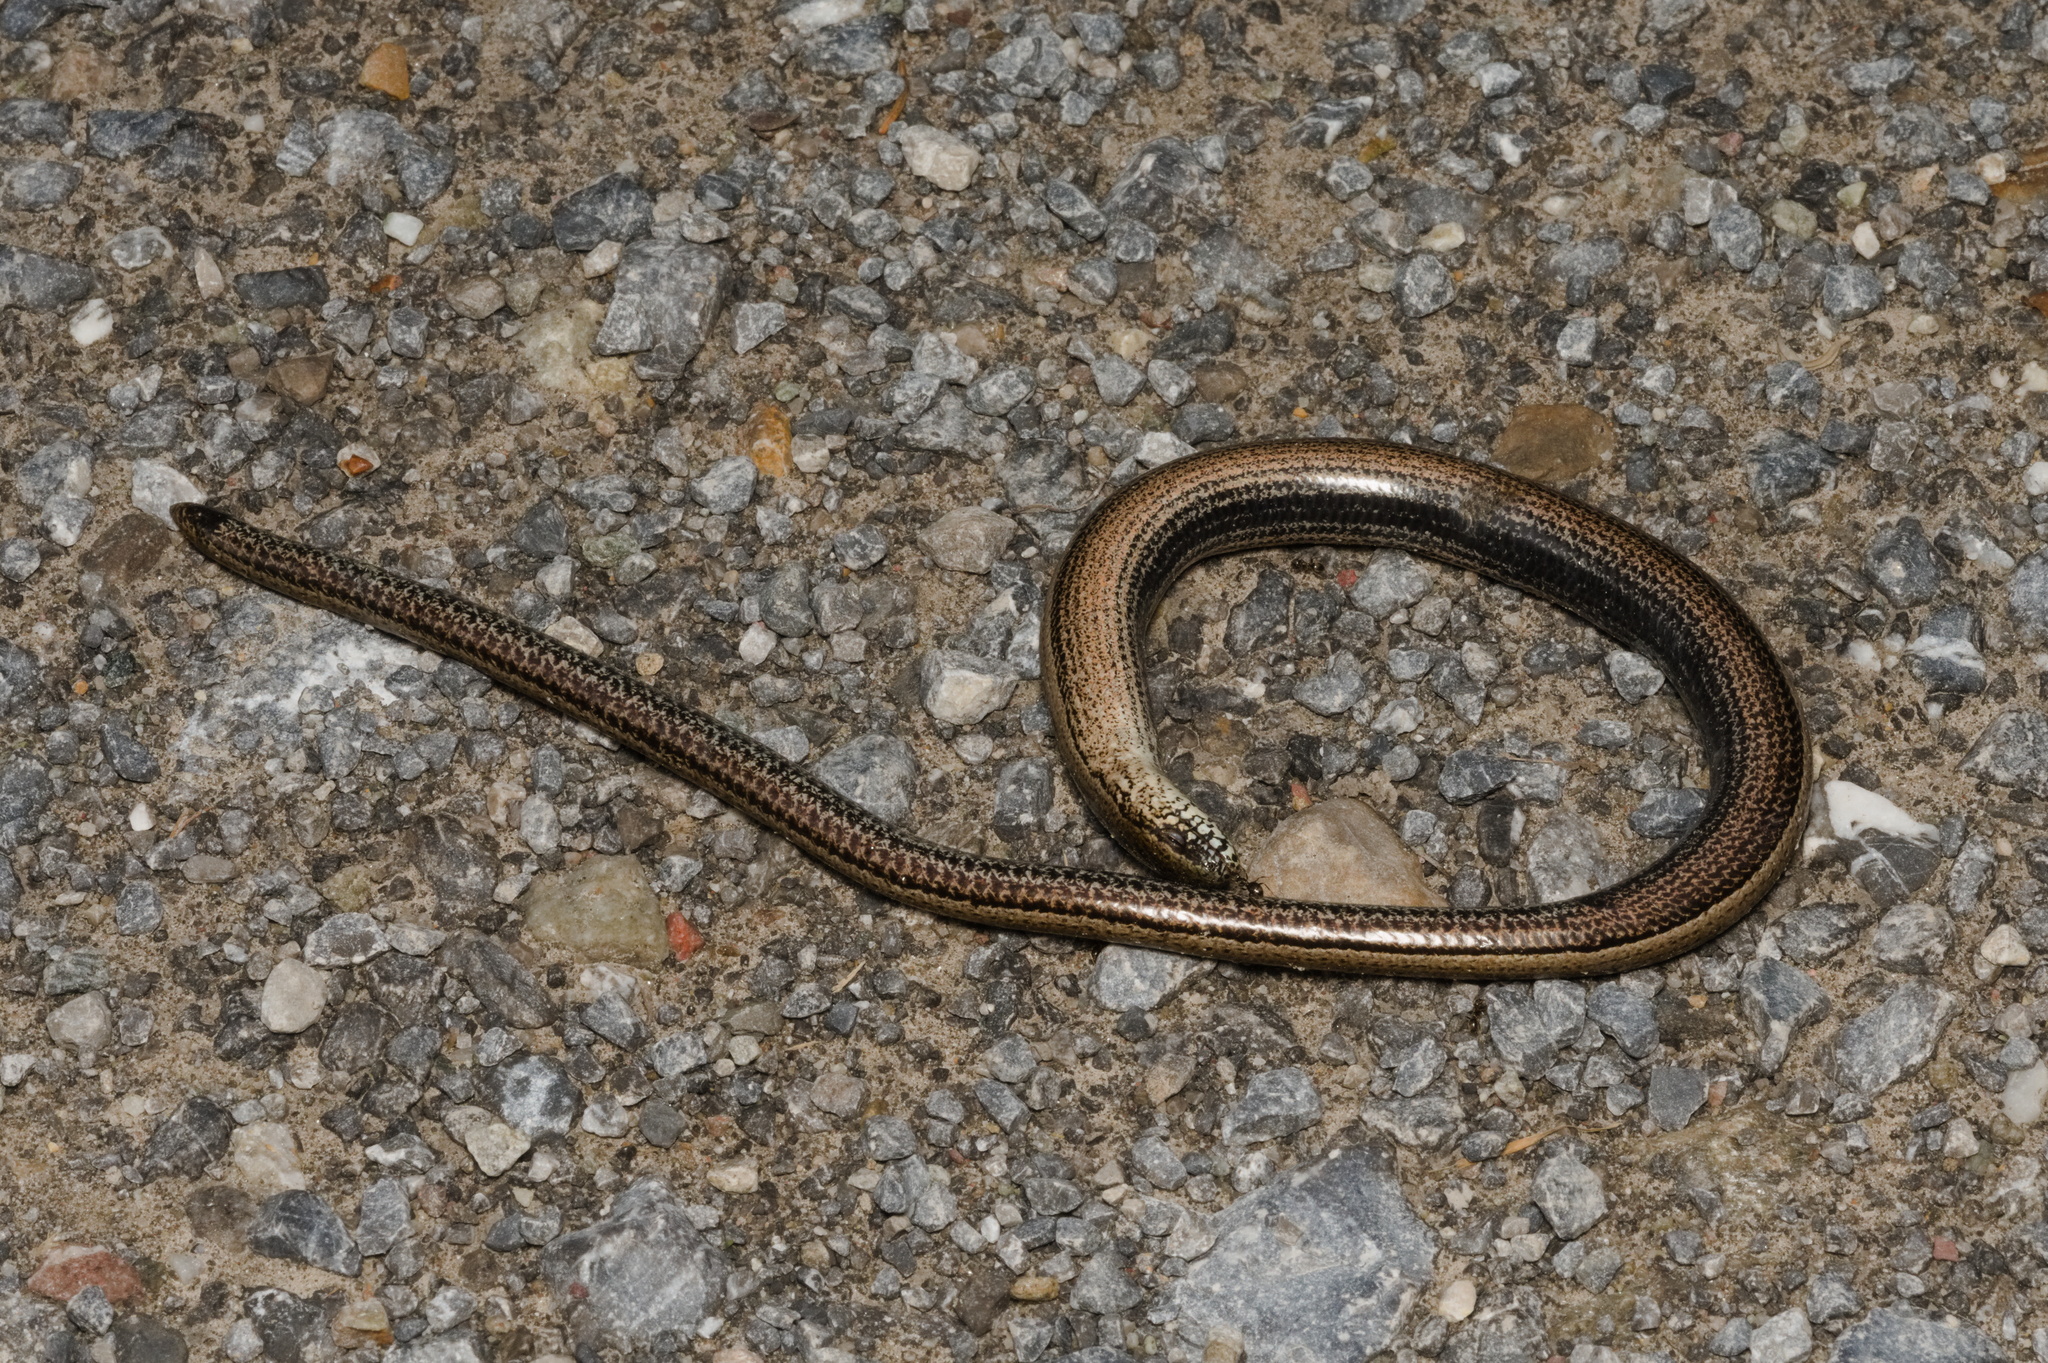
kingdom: Animalia
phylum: Chordata
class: Squamata
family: Anguidae
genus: Anguis
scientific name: Anguis fragilis
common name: Slow worm
